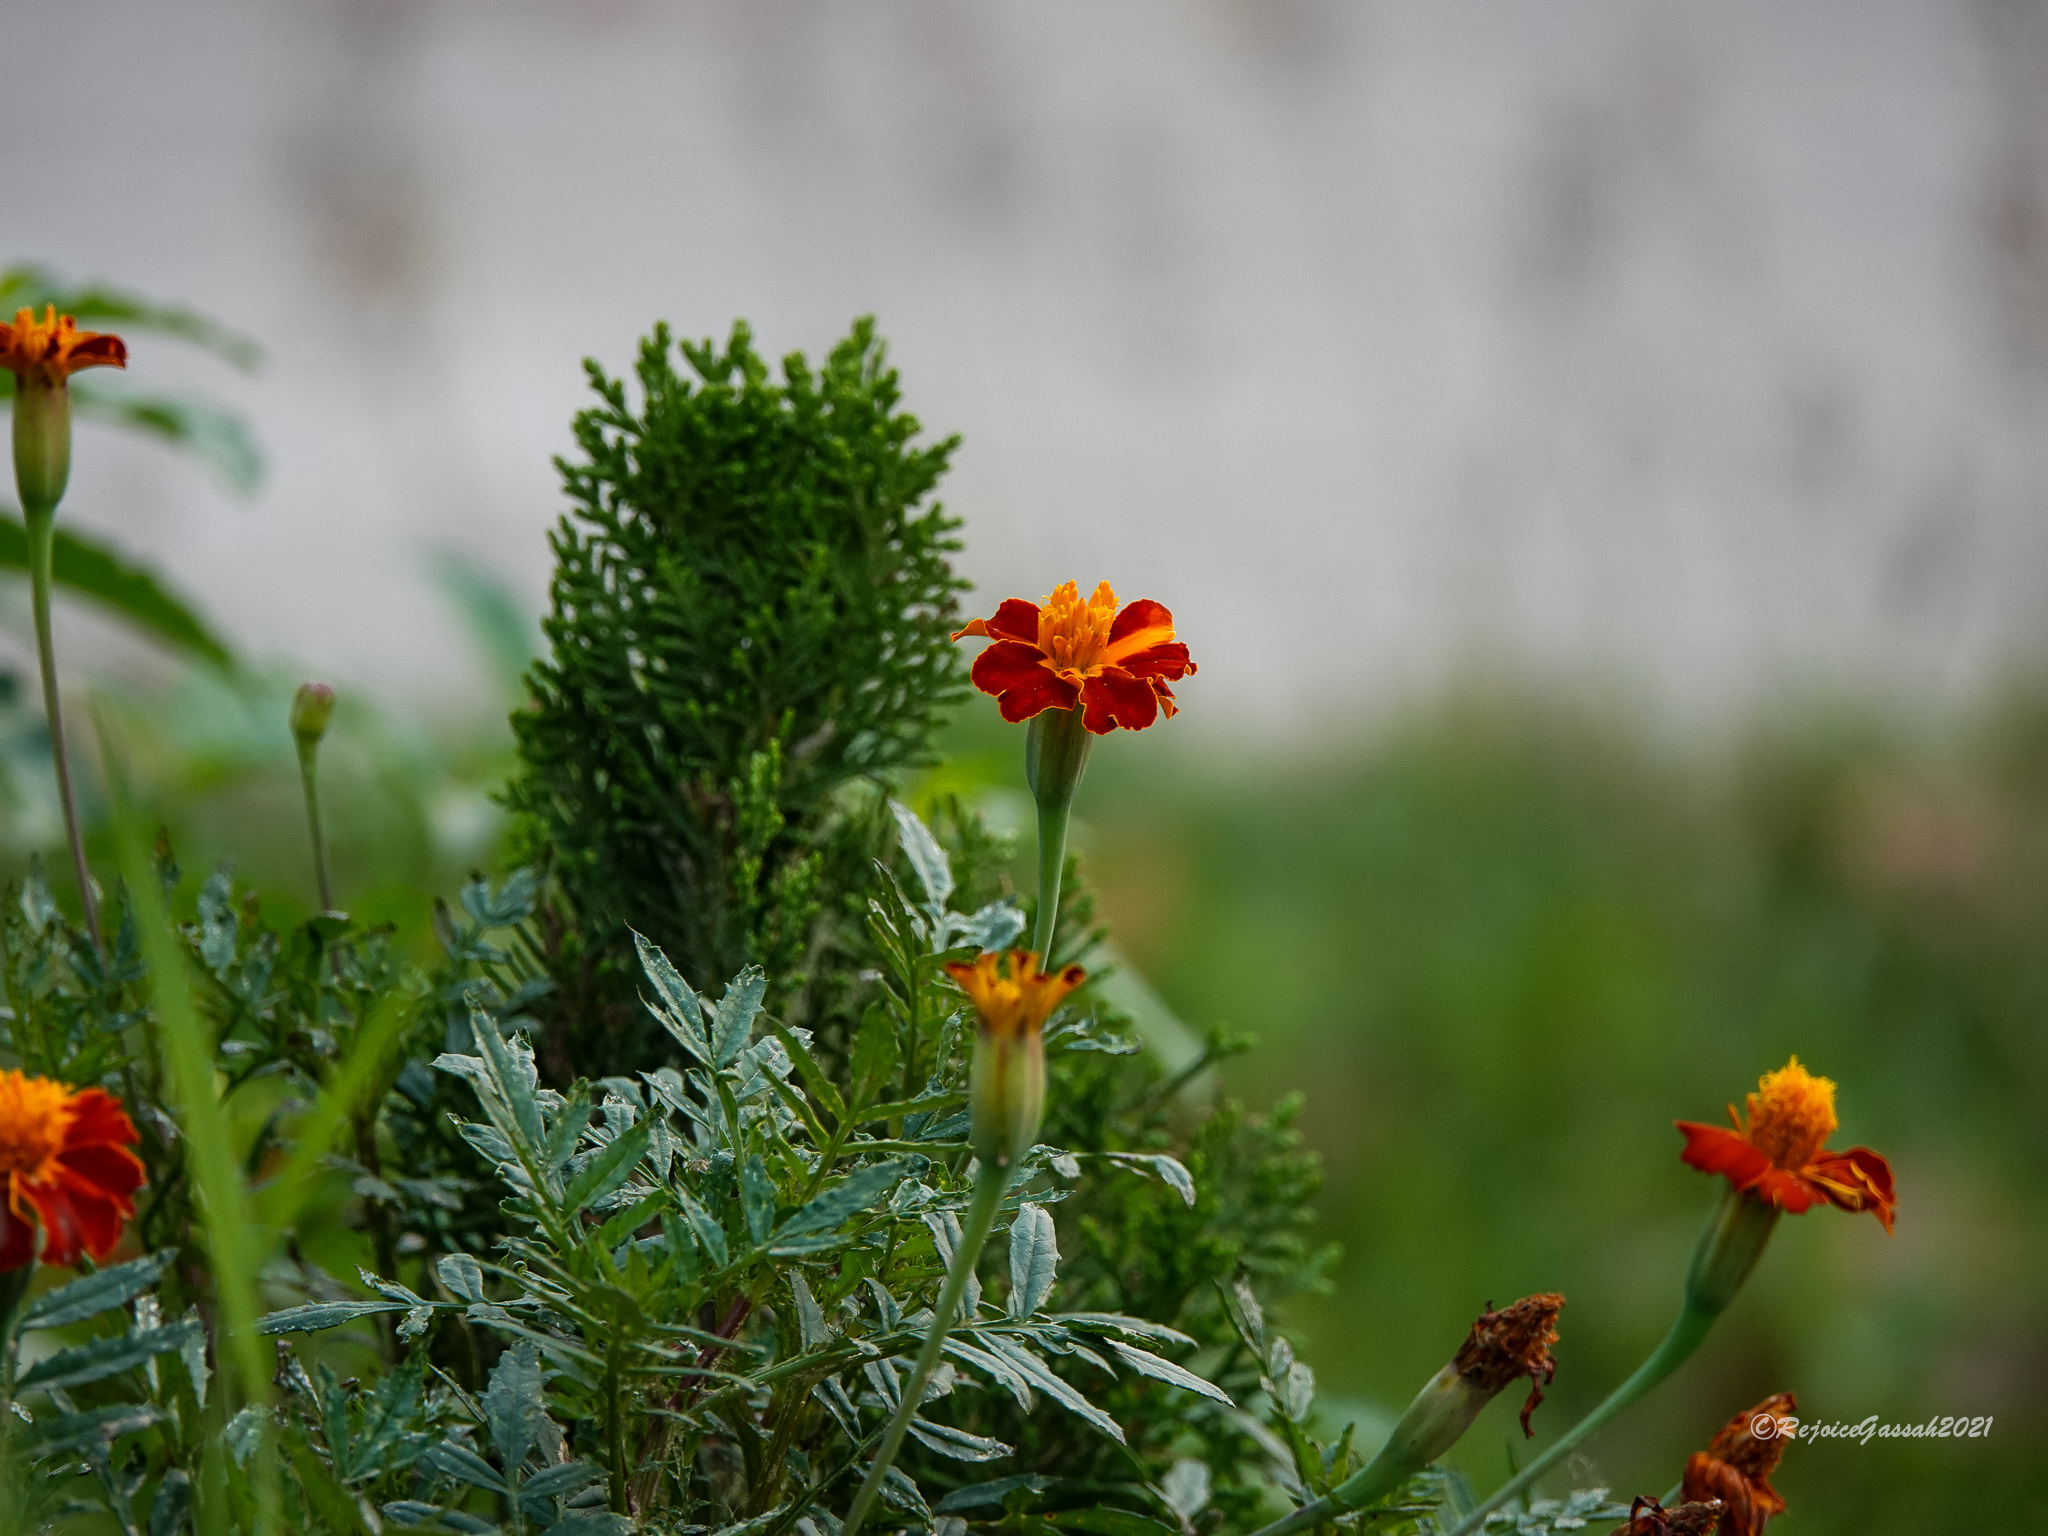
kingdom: Plantae
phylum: Tracheophyta
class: Magnoliopsida
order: Asterales
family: Asteraceae
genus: Tagetes
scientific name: Tagetes erecta
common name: African marigold
